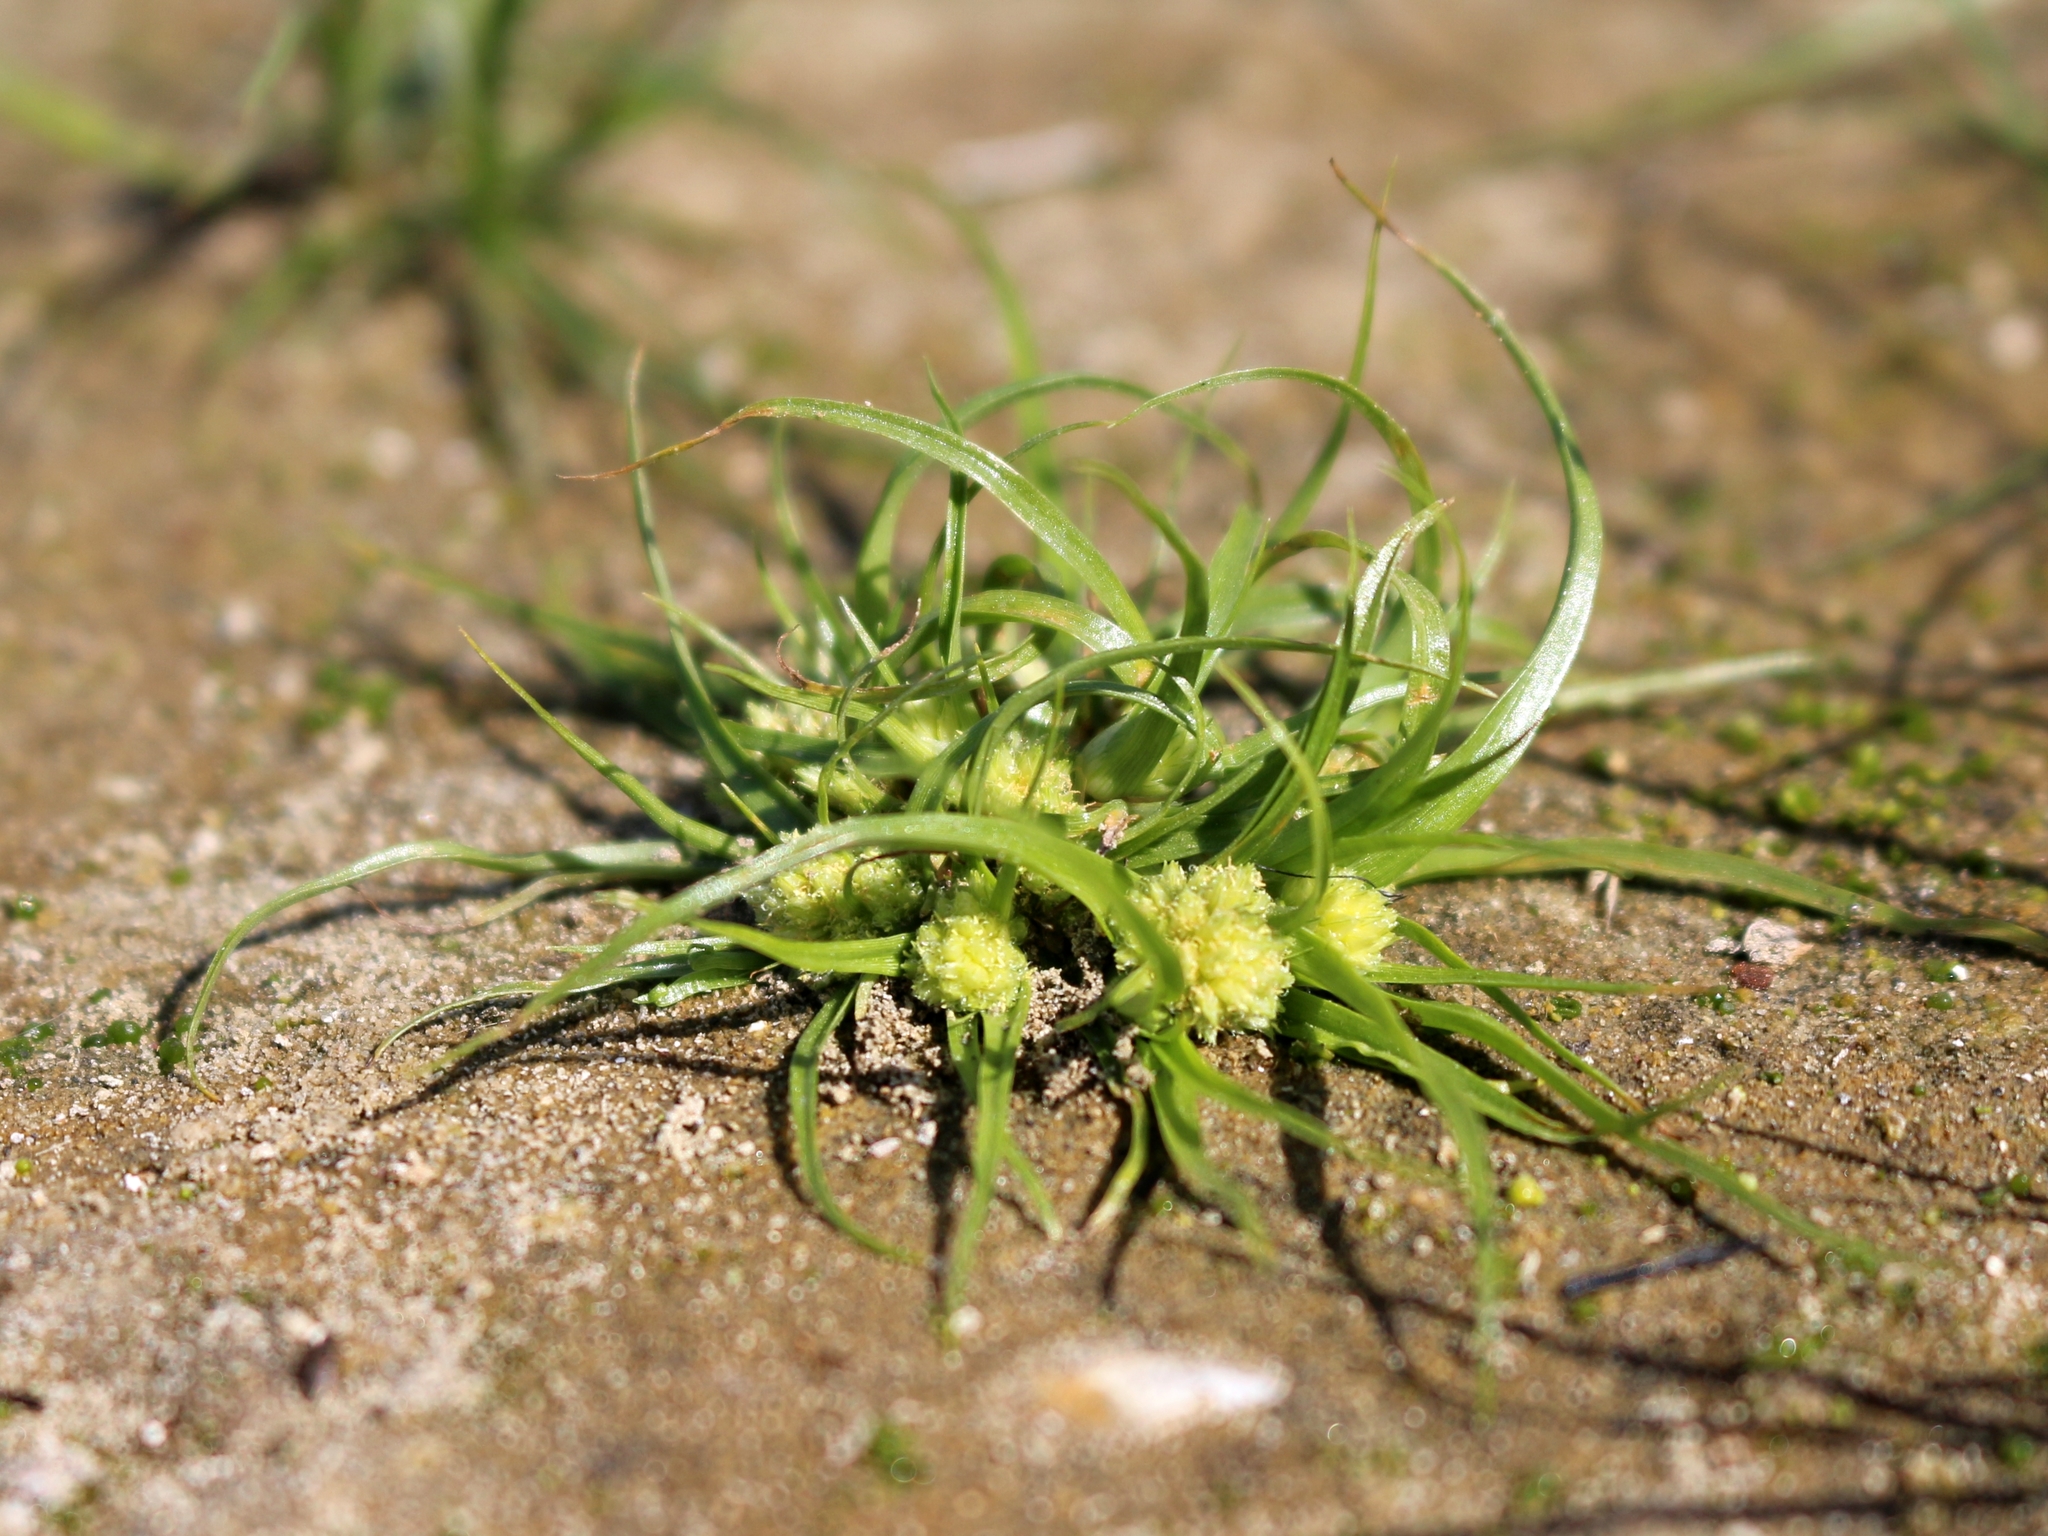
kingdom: Plantae
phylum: Tracheophyta
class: Liliopsida
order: Poales
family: Cyperaceae
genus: Cyperus
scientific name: Cyperus michelianus
